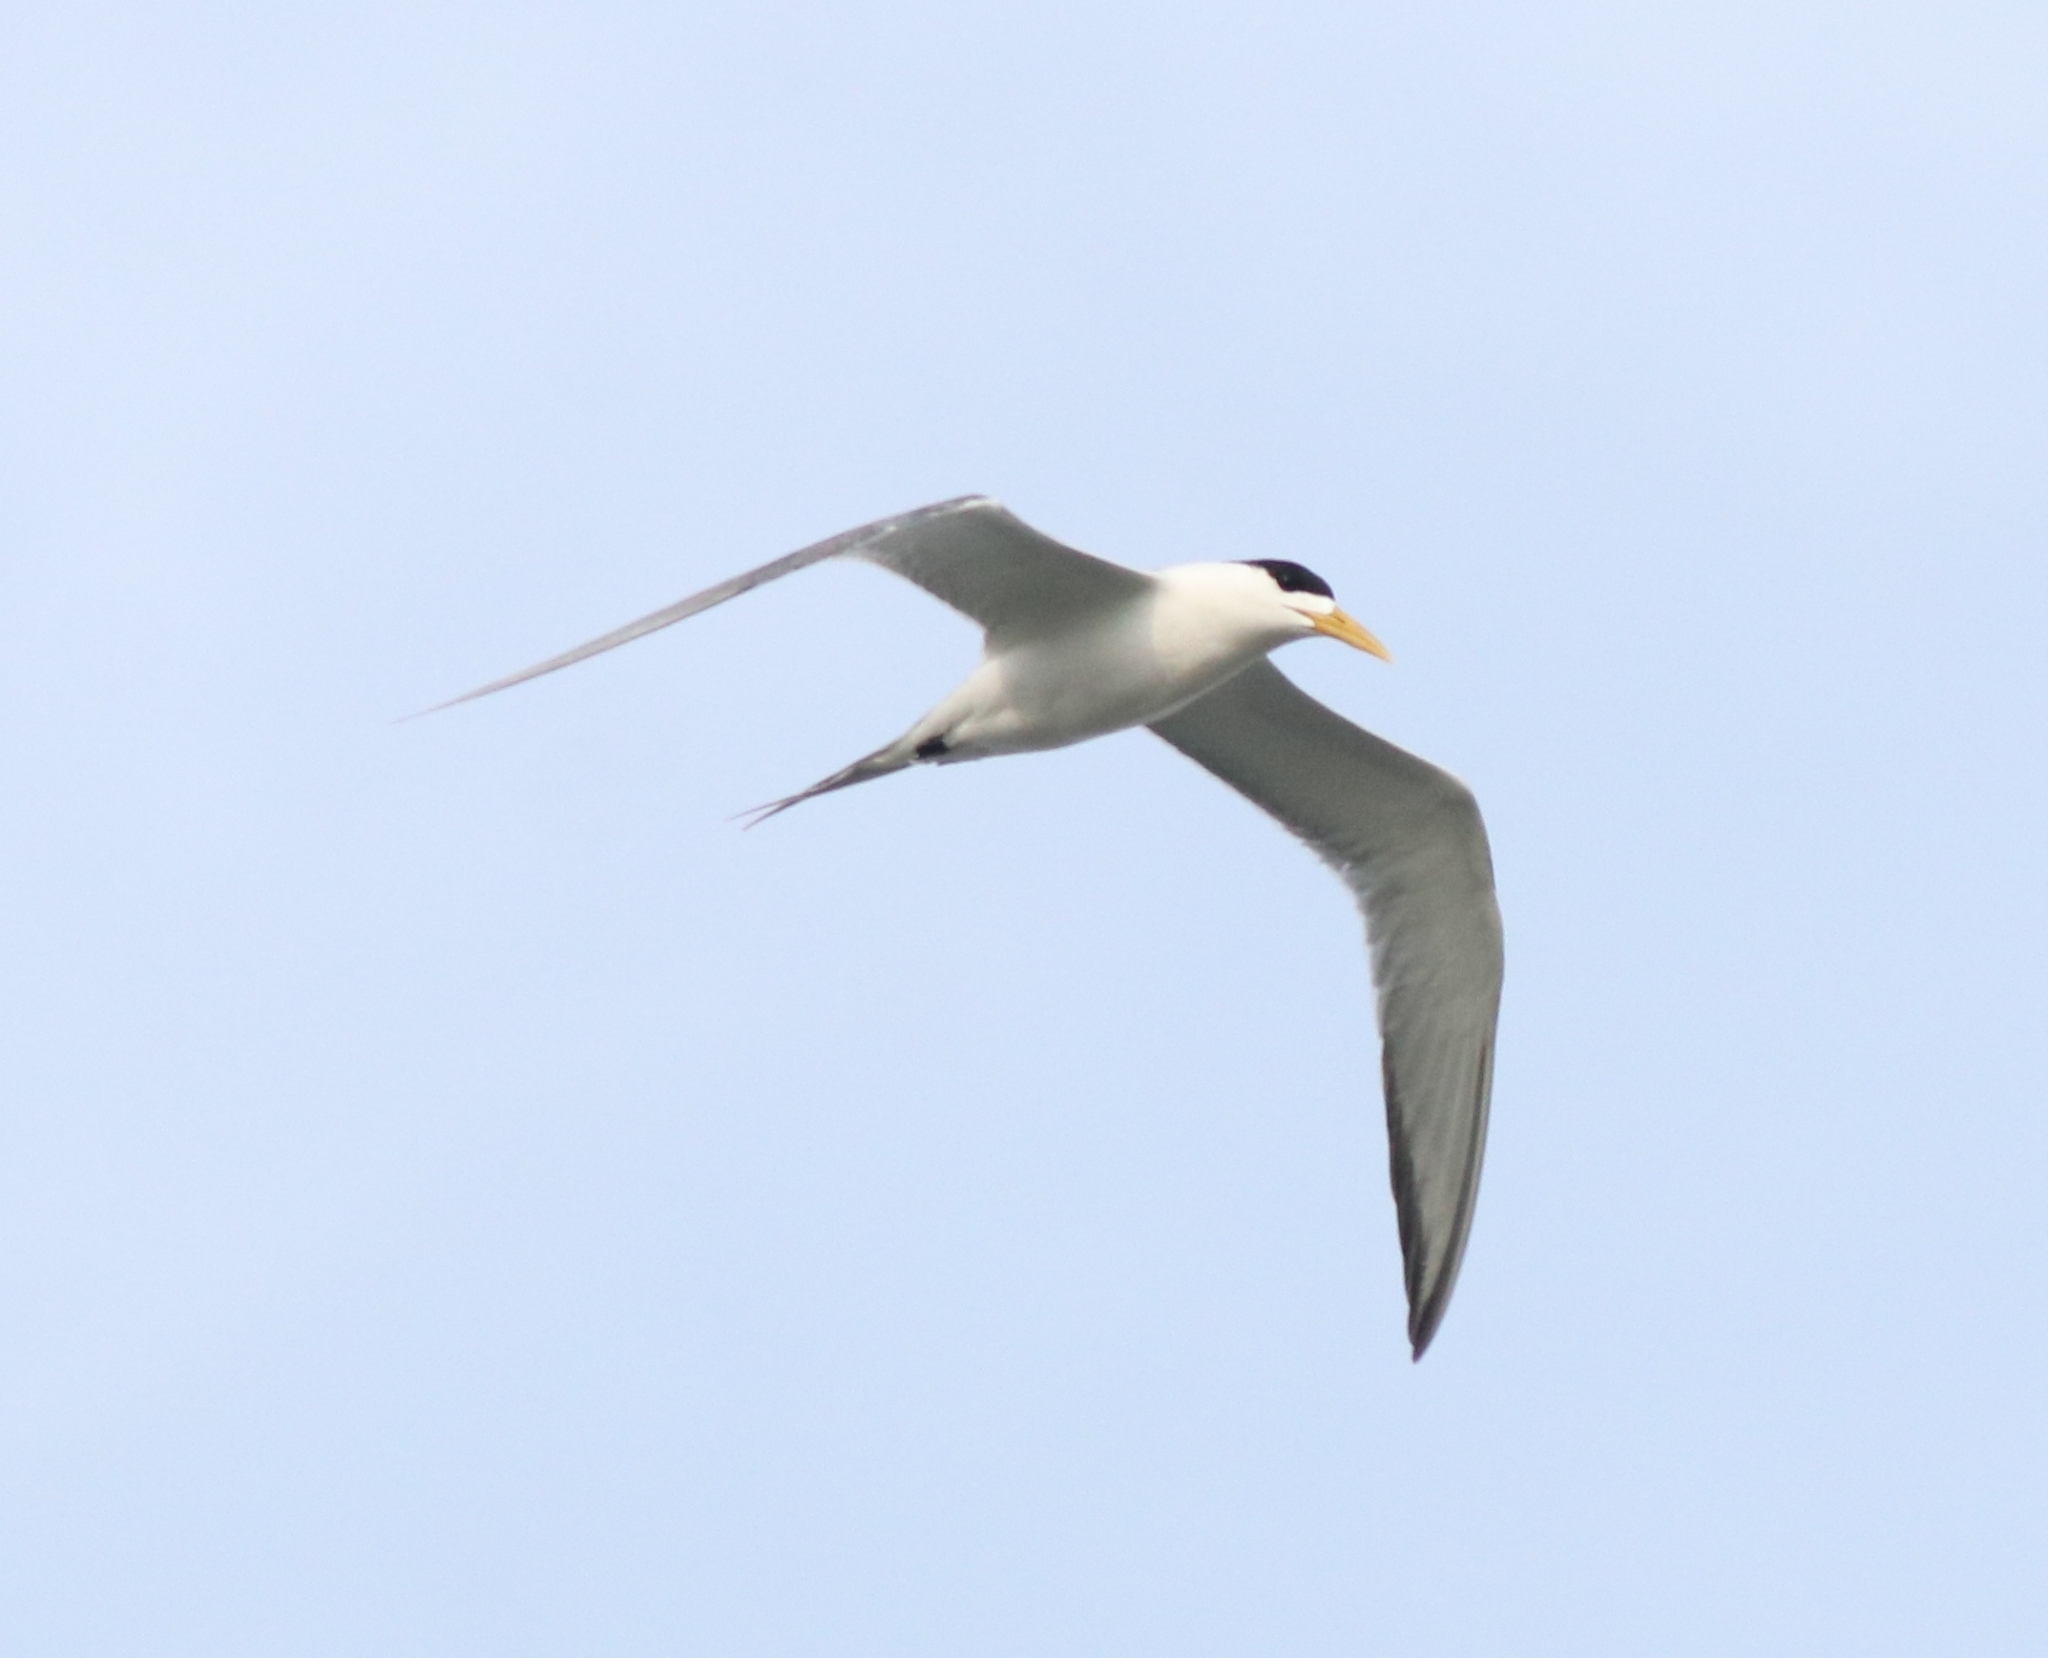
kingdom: Animalia
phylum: Chordata
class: Aves
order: Charadriiformes
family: Laridae
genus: Thalasseus
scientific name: Thalasseus bengalensis
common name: Lesser crested tern
